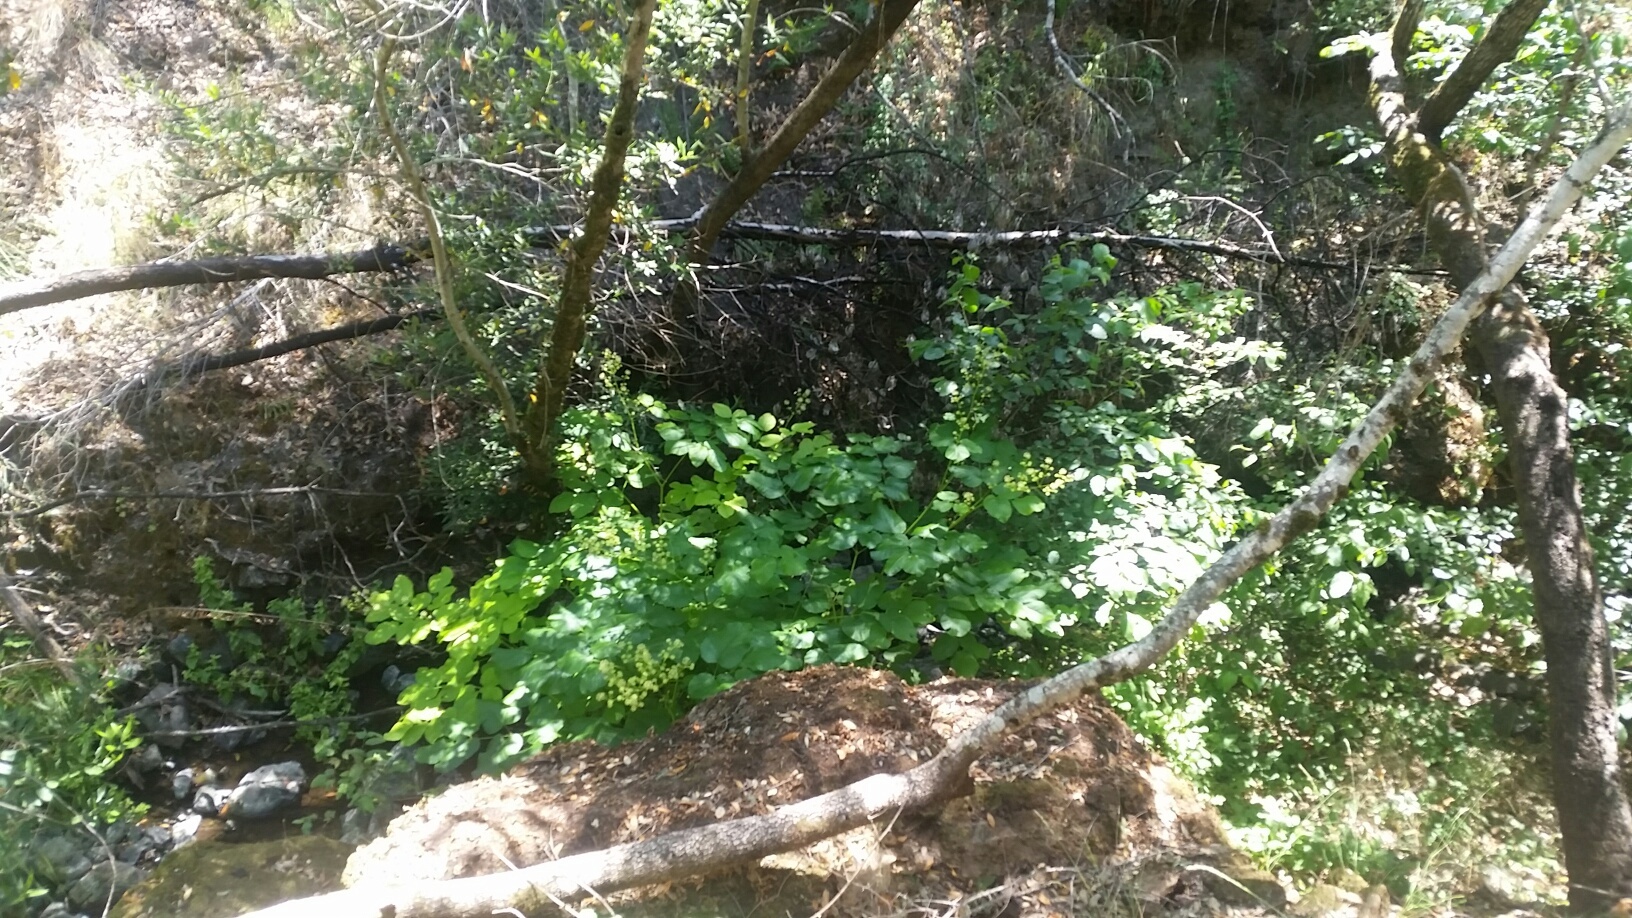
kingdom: Plantae
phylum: Tracheophyta
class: Magnoliopsida
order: Apiales
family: Araliaceae
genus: Aralia
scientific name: Aralia californica
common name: California-ginseng
